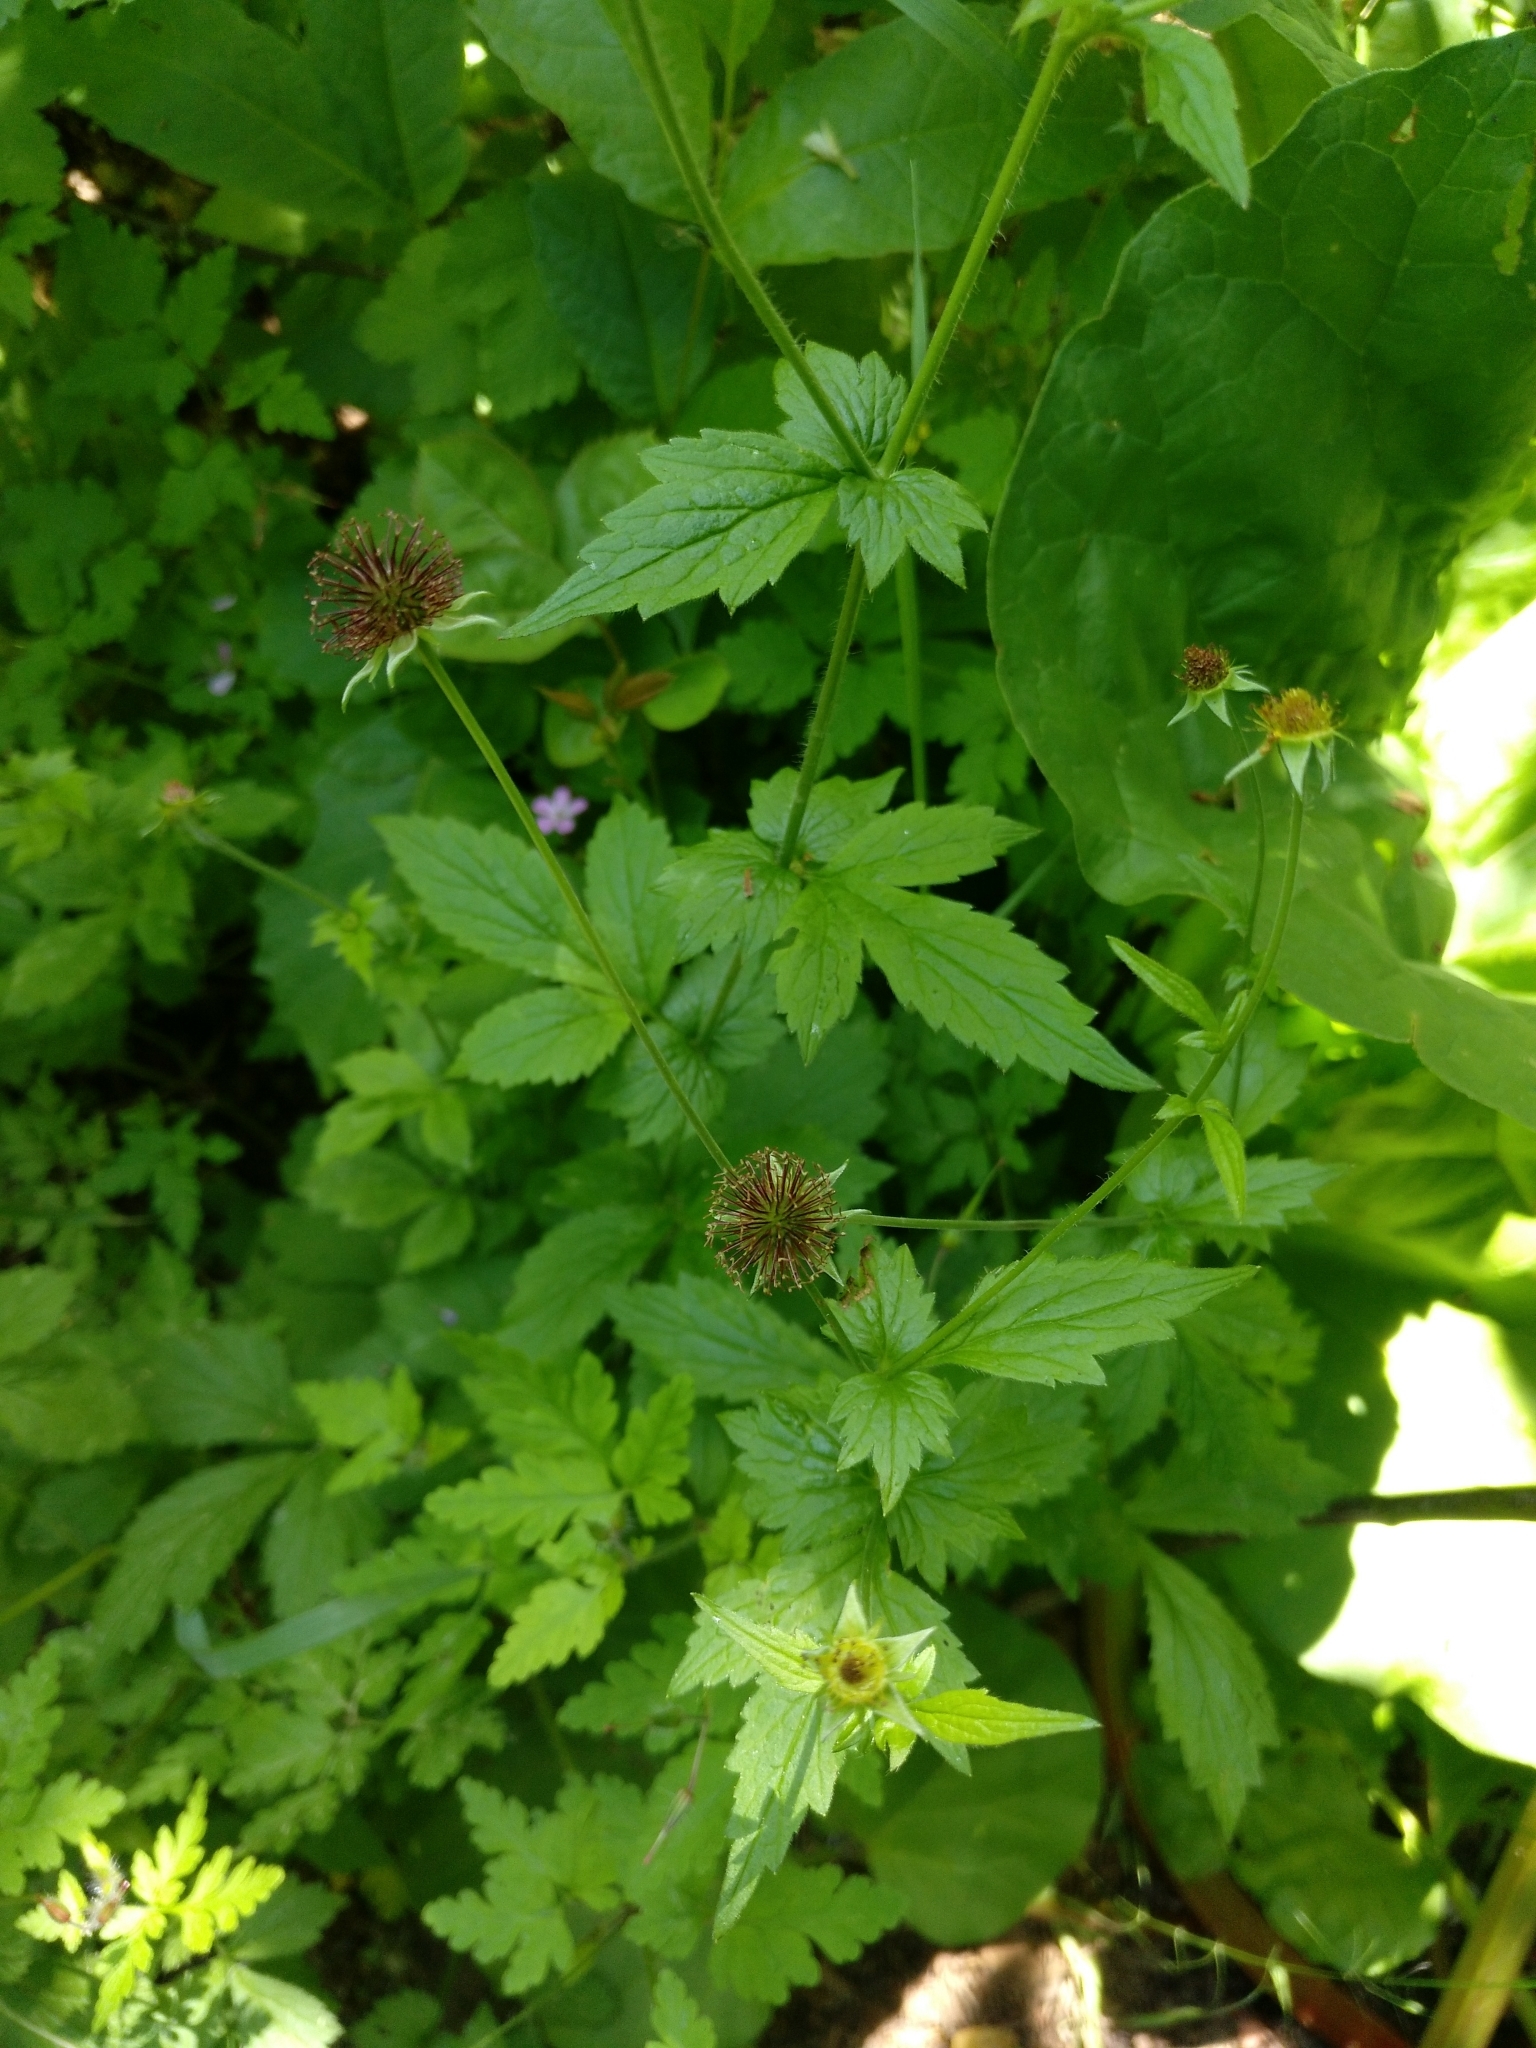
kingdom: Plantae
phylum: Tracheophyta
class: Magnoliopsida
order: Rosales
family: Rosaceae
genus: Geum
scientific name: Geum urbanum
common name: Wood avens
